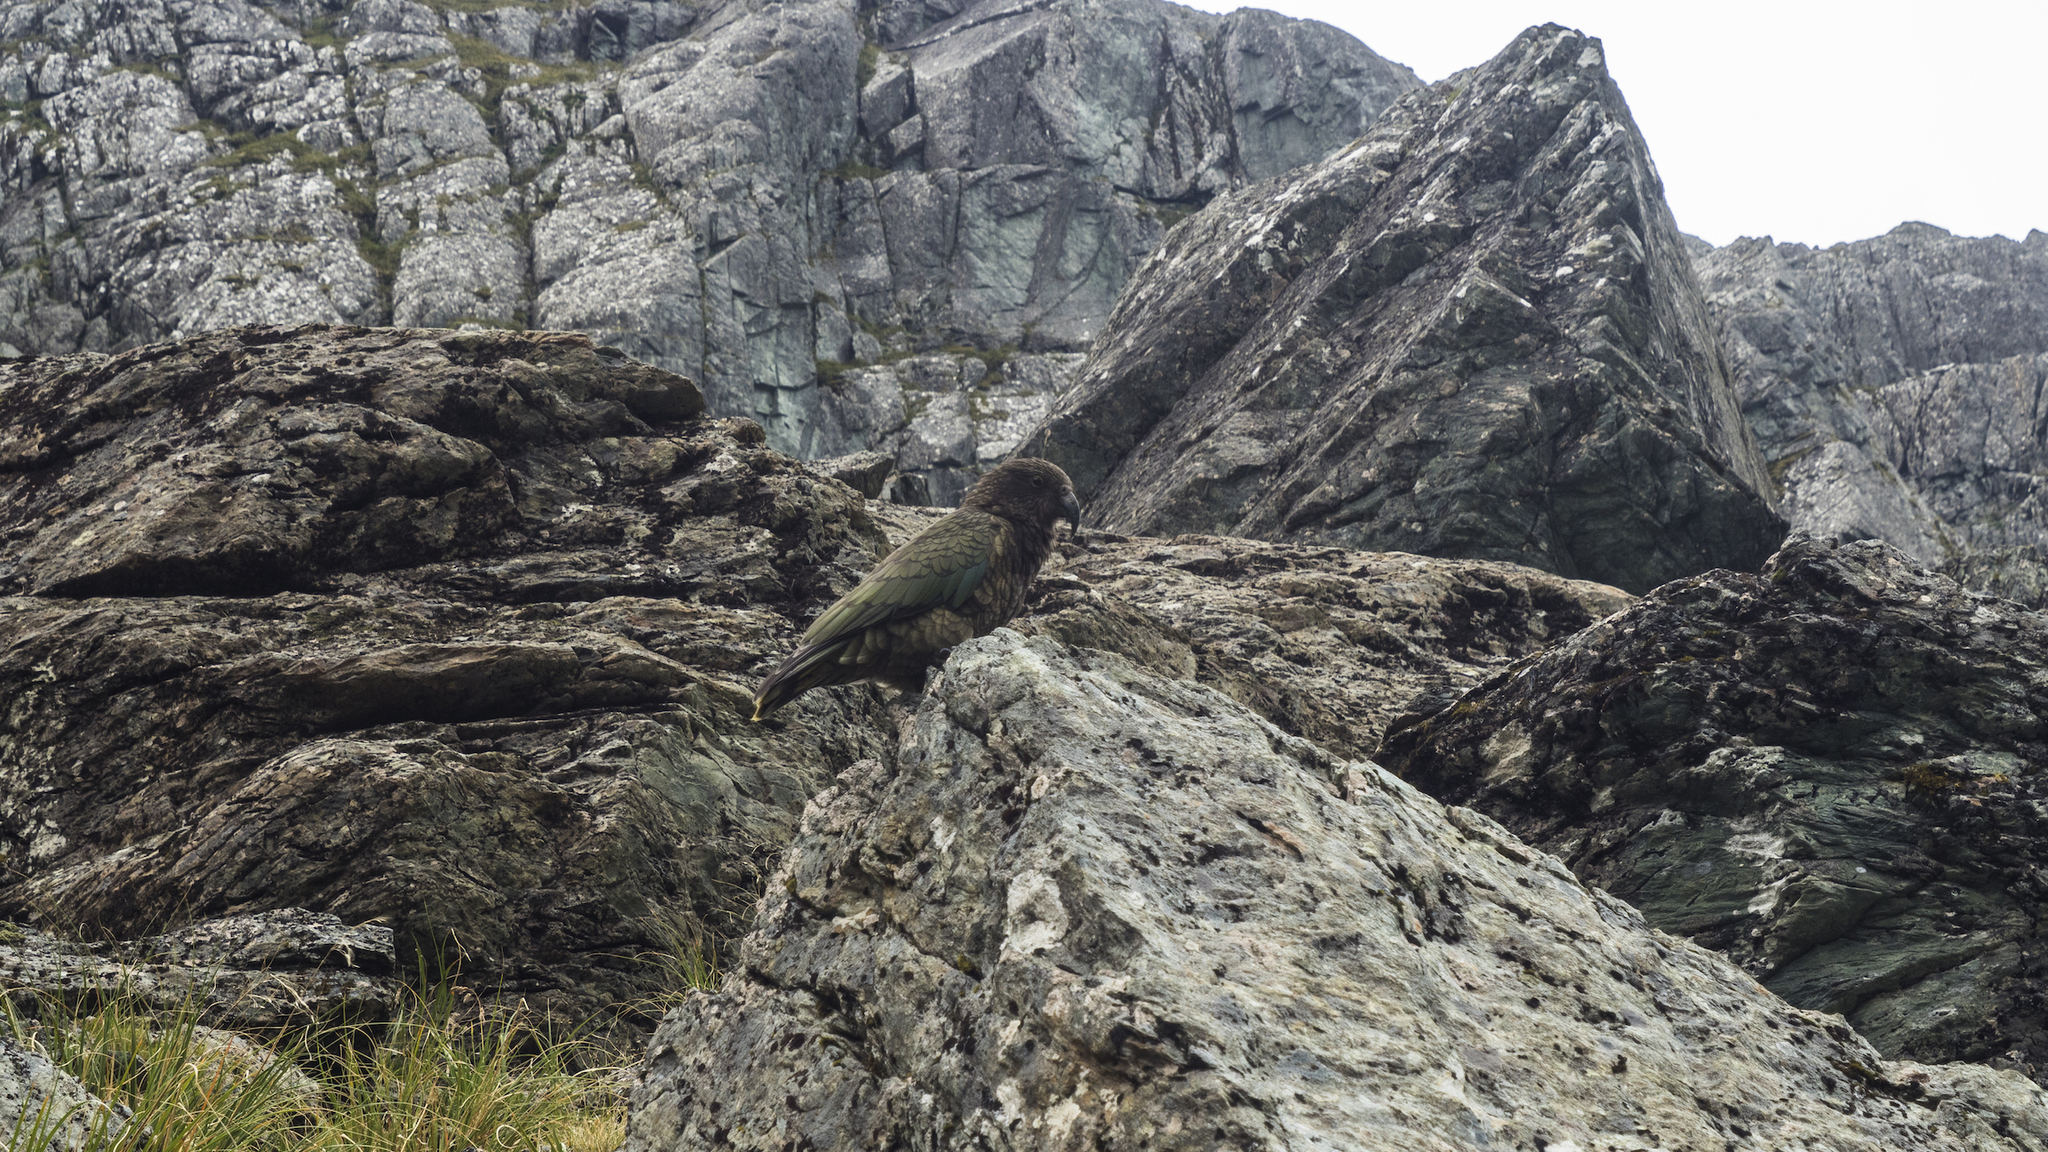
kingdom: Animalia
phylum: Chordata
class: Aves
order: Psittaciformes
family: Psittacidae
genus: Nestor
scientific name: Nestor notabilis
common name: Kea
